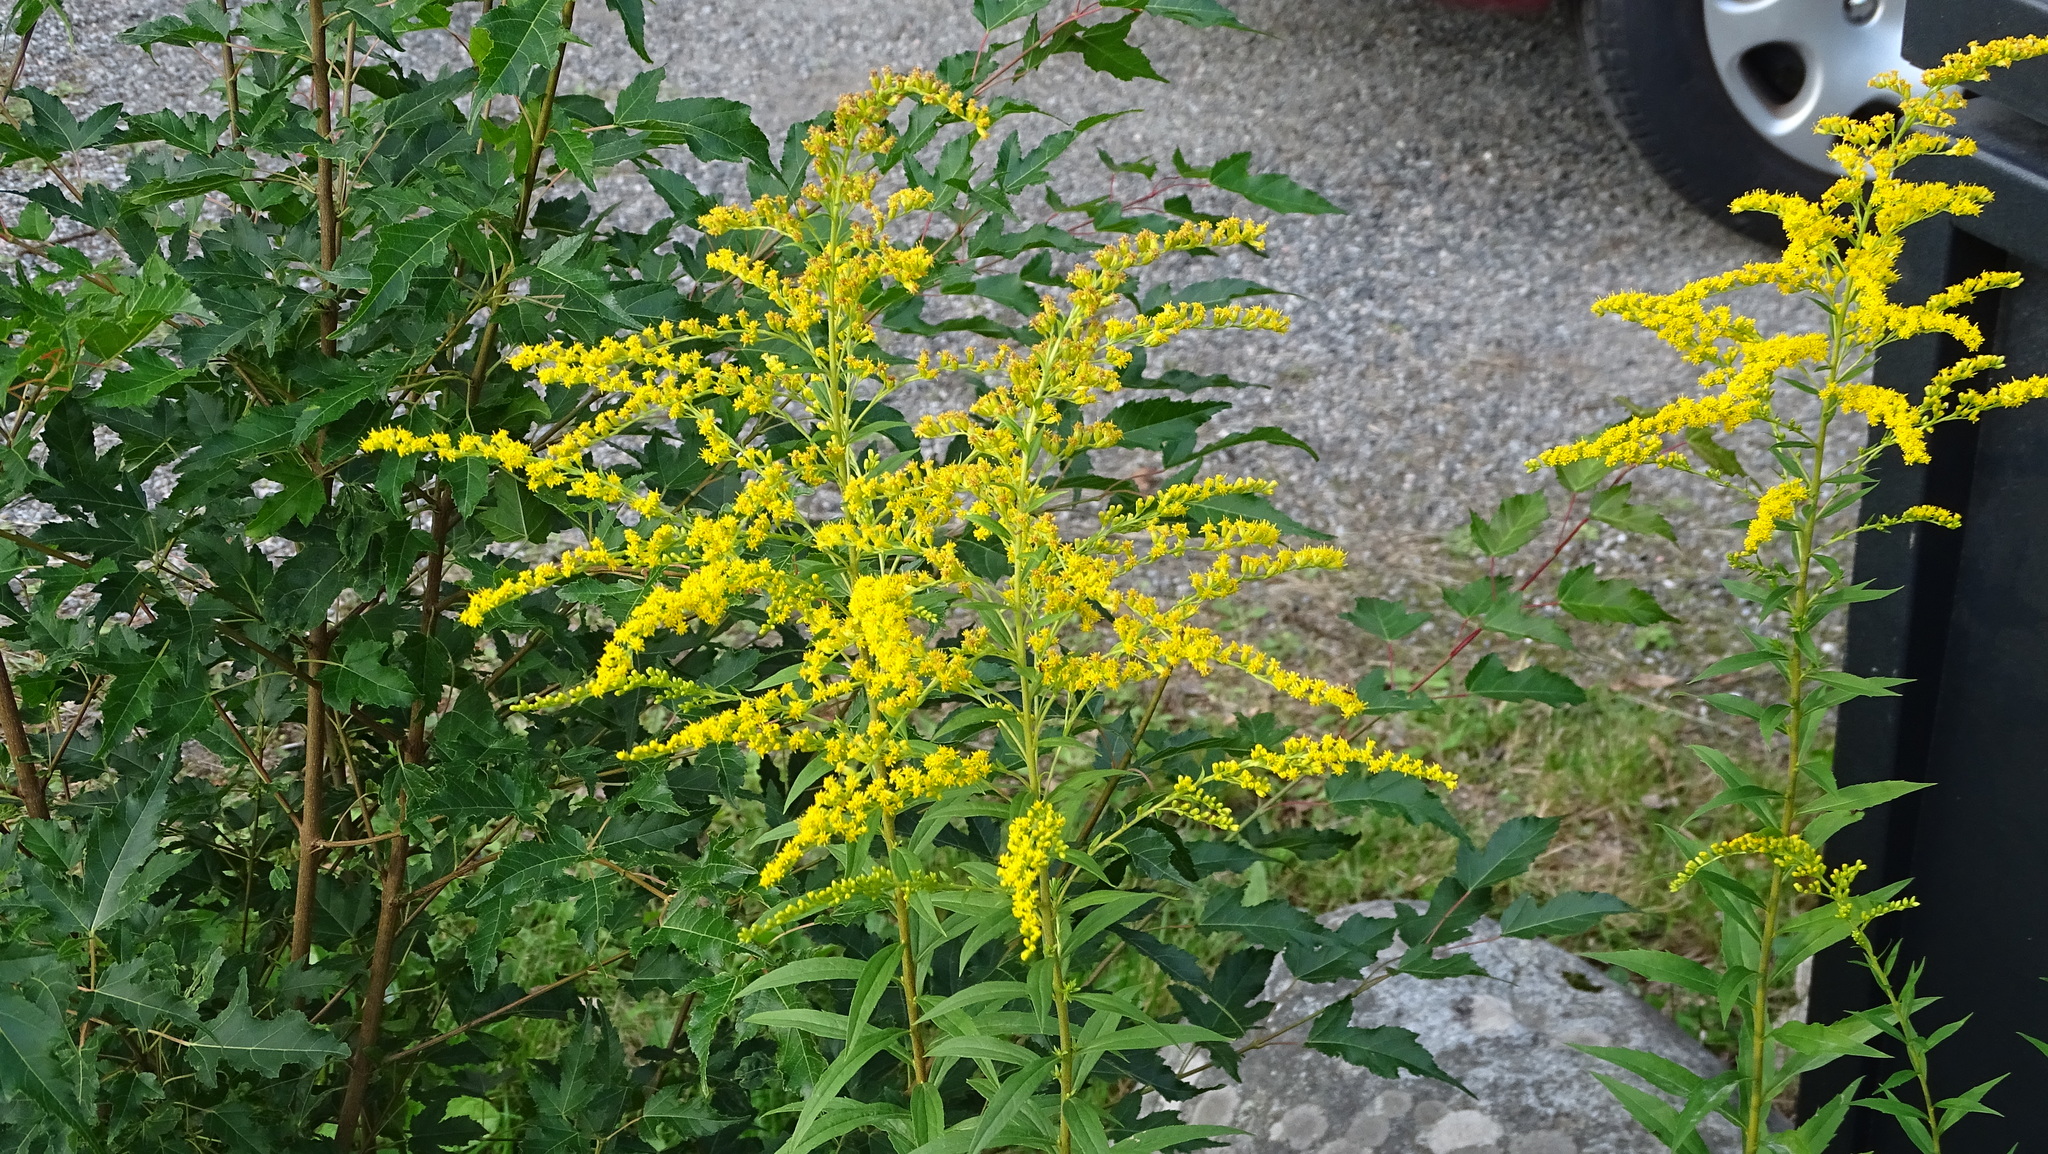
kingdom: Plantae
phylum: Tracheophyta
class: Magnoliopsida
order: Asterales
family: Asteraceae
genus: Solidago
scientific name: Solidago canadensis
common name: Canada goldenrod
